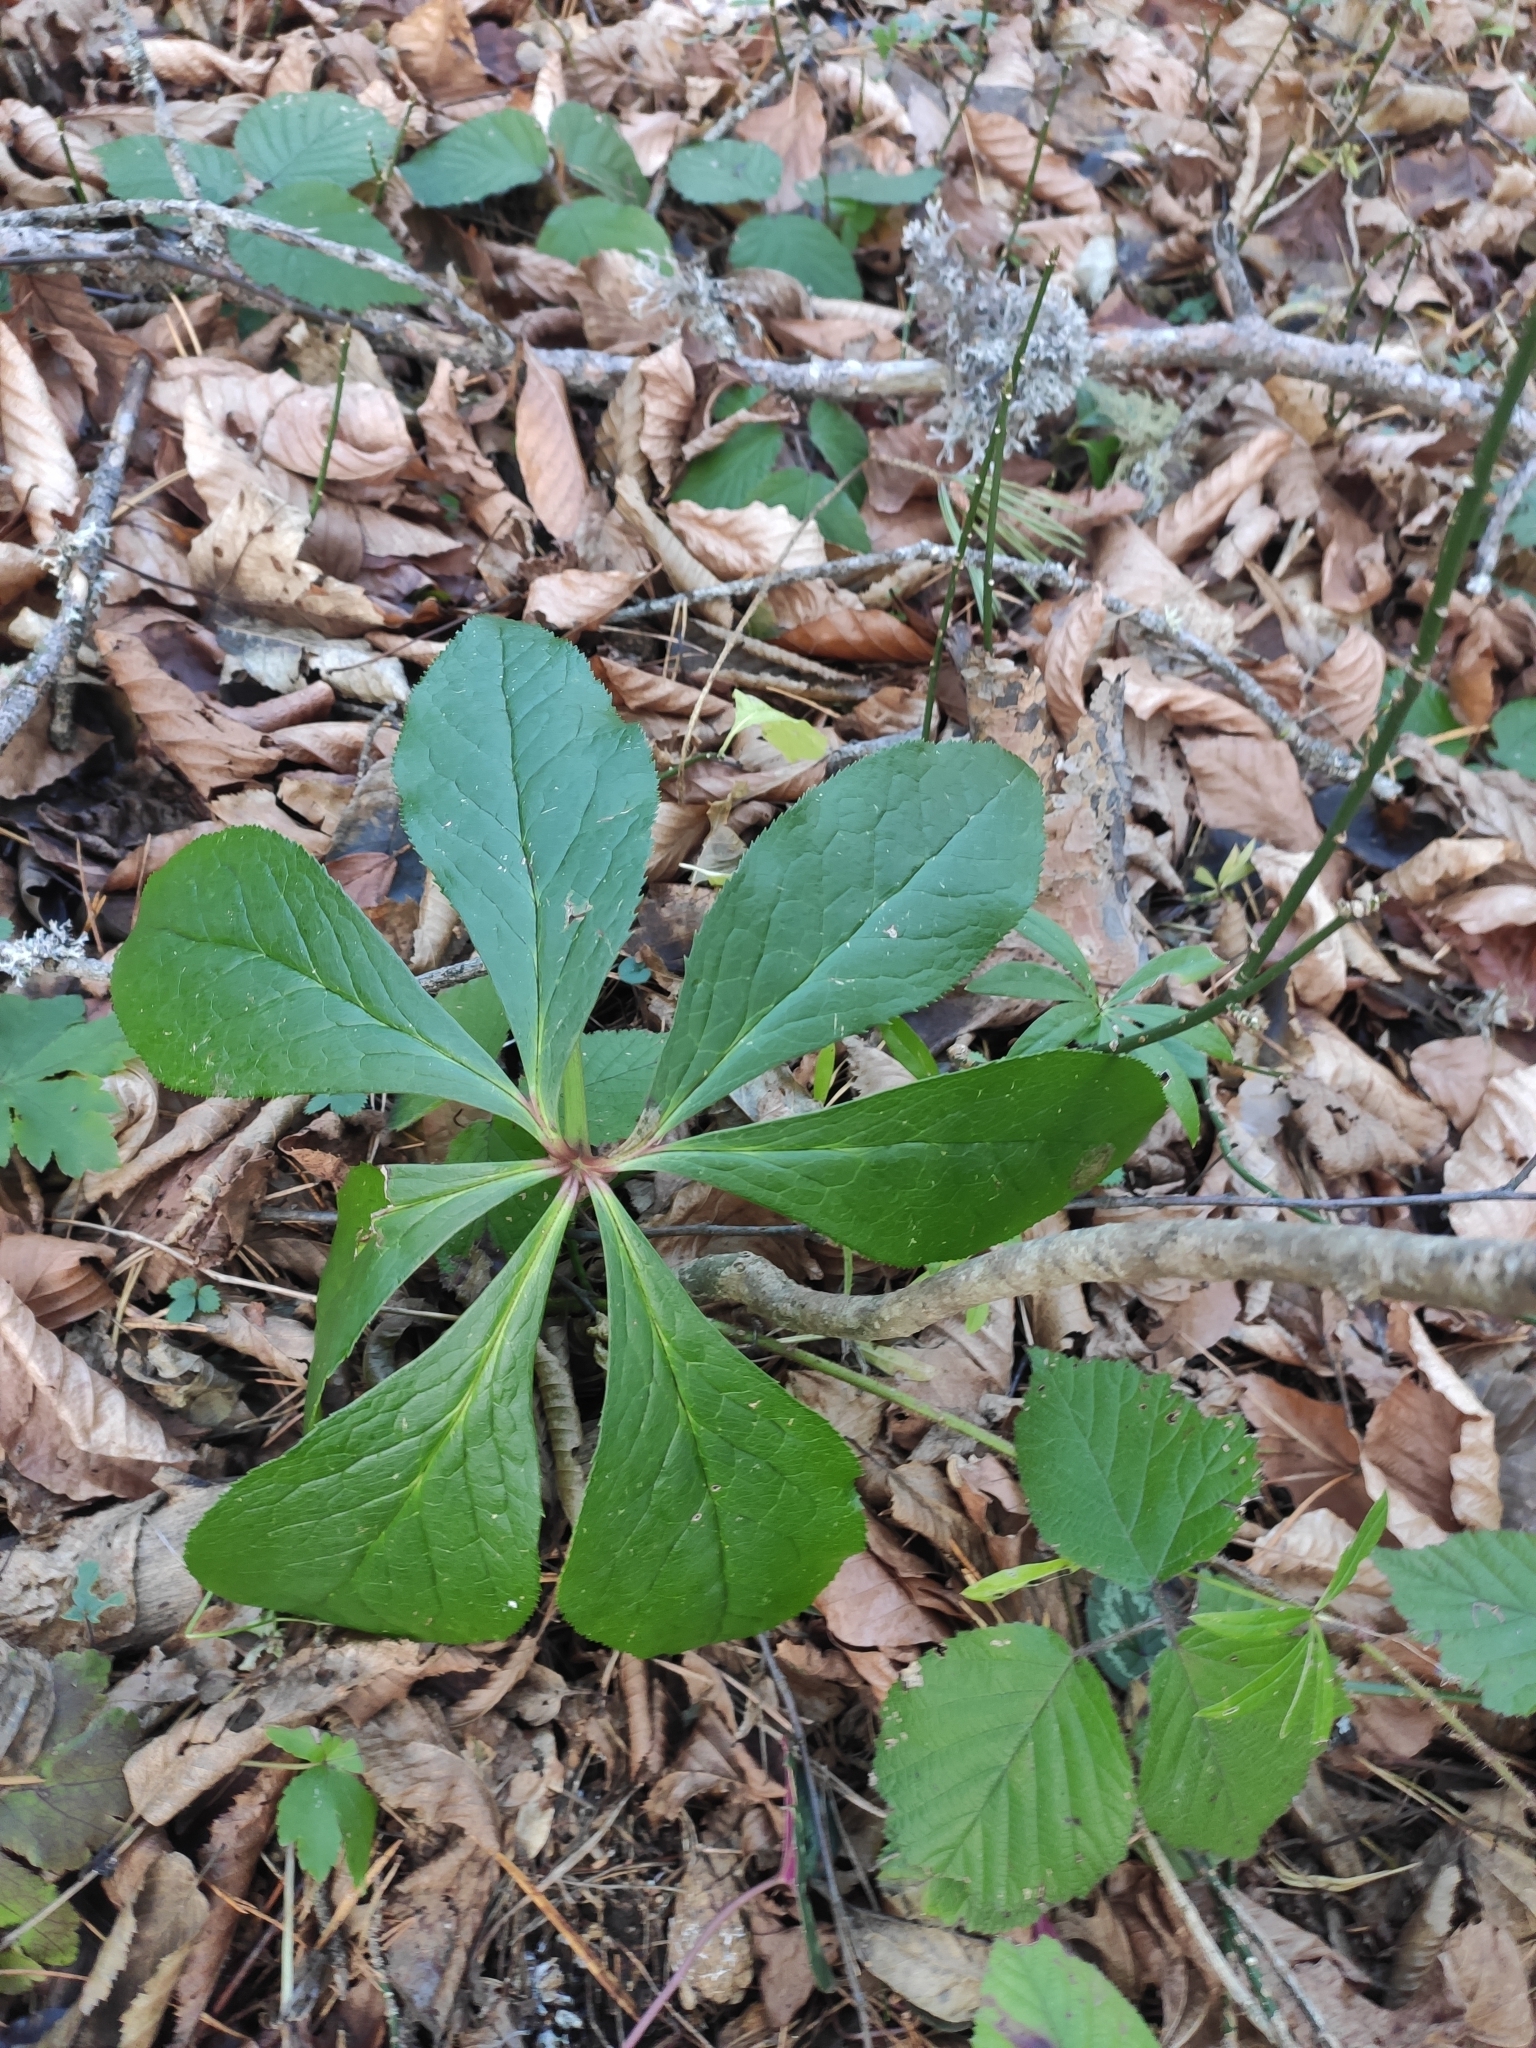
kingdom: Plantae
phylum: Tracheophyta
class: Magnoliopsida
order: Ranunculales
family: Ranunculaceae
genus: Helleborus
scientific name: Helleborus orientalis
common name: Lenten-rose
